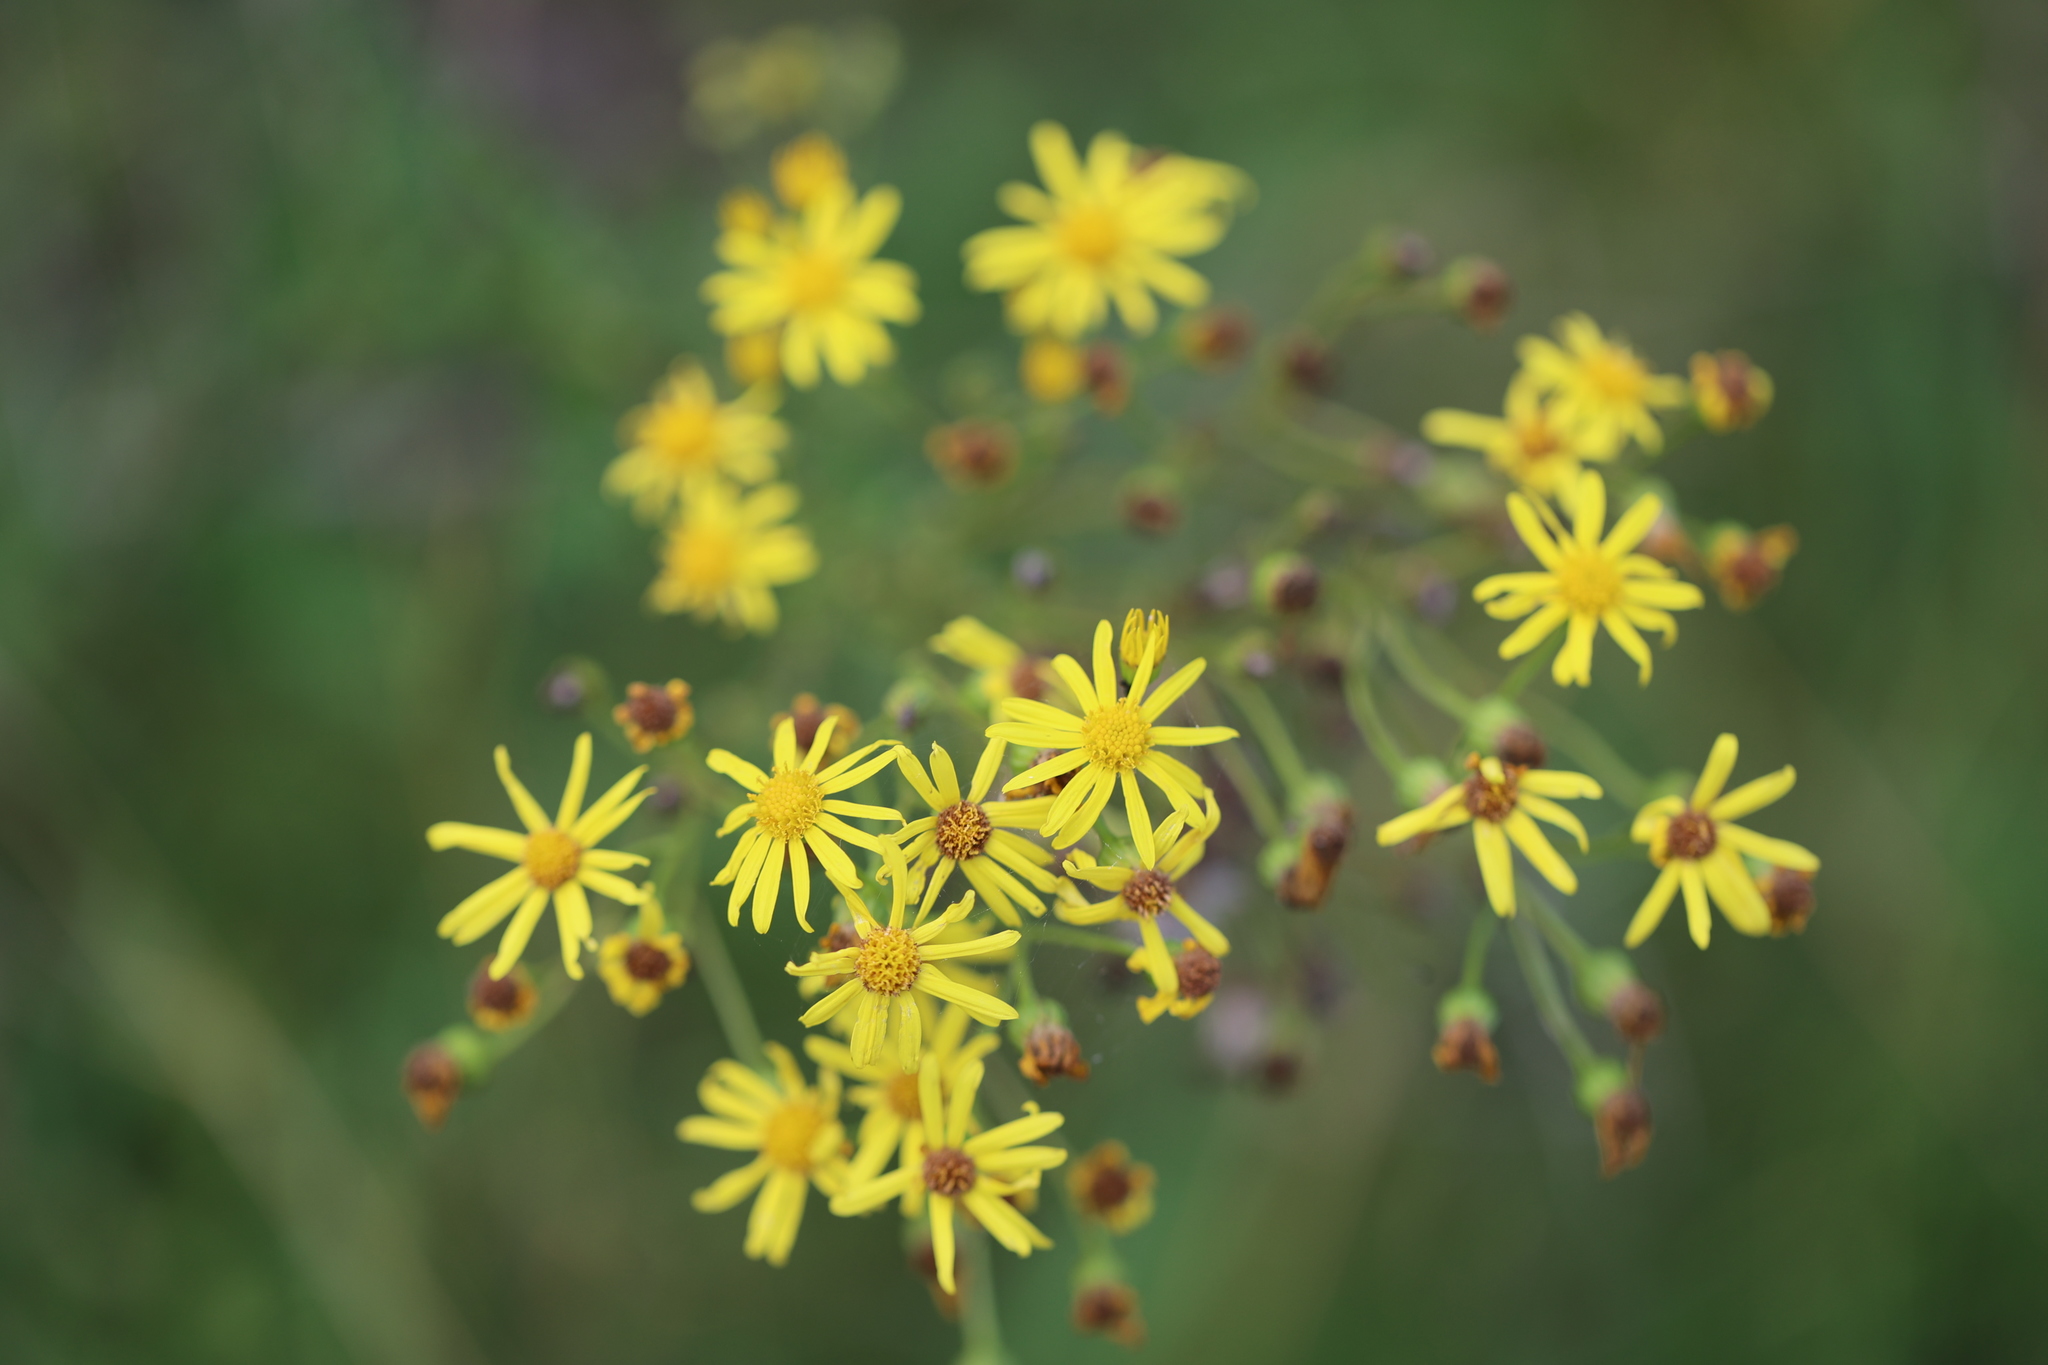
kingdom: Plantae
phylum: Tracheophyta
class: Magnoliopsida
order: Asterales
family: Asteraceae
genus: Jacobaea
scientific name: Jacobaea vulgaris
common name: Stinking willie
